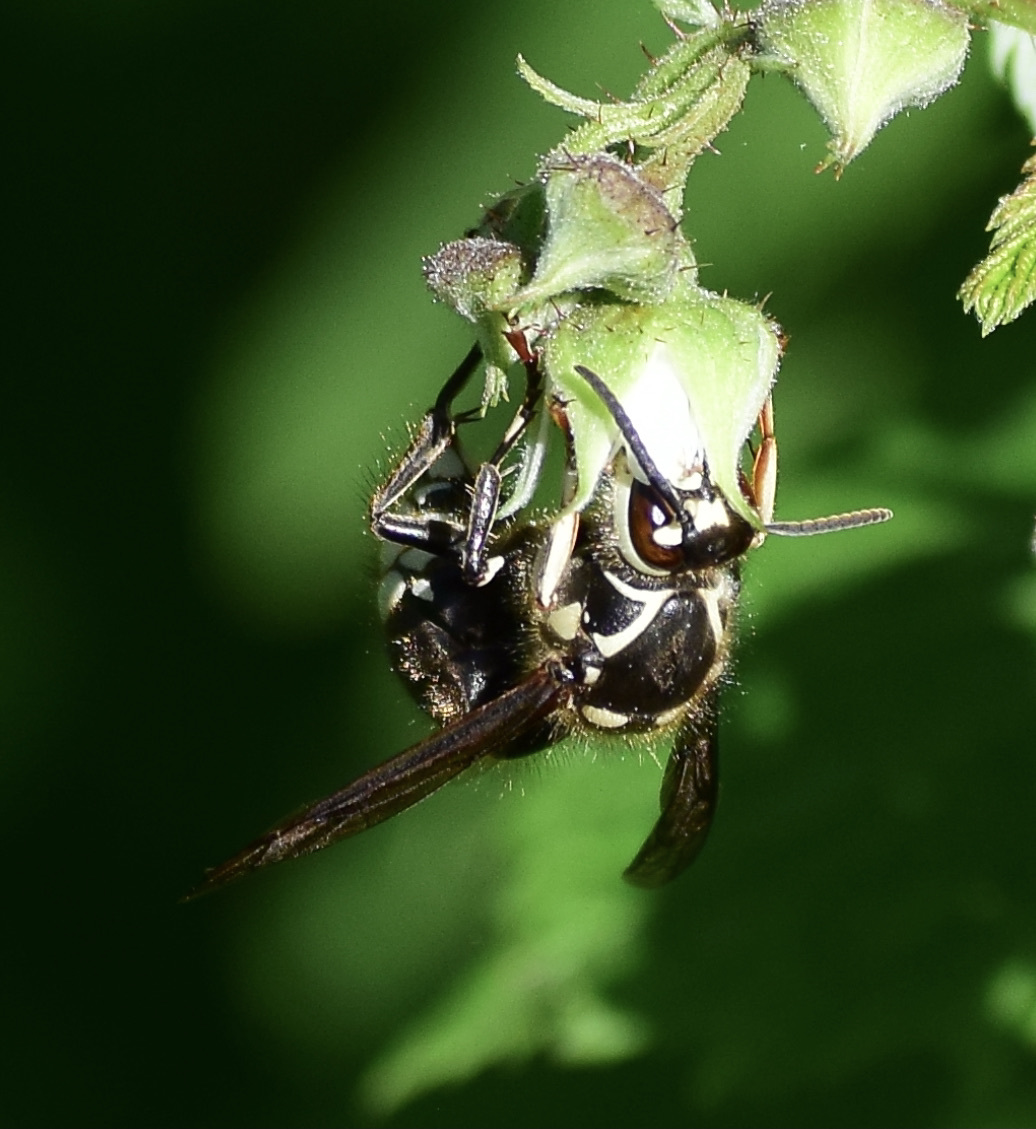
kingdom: Animalia
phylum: Arthropoda
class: Insecta
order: Hymenoptera
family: Vespidae
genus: Dolichovespula
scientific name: Dolichovespula maculata
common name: Bald-faced hornet
